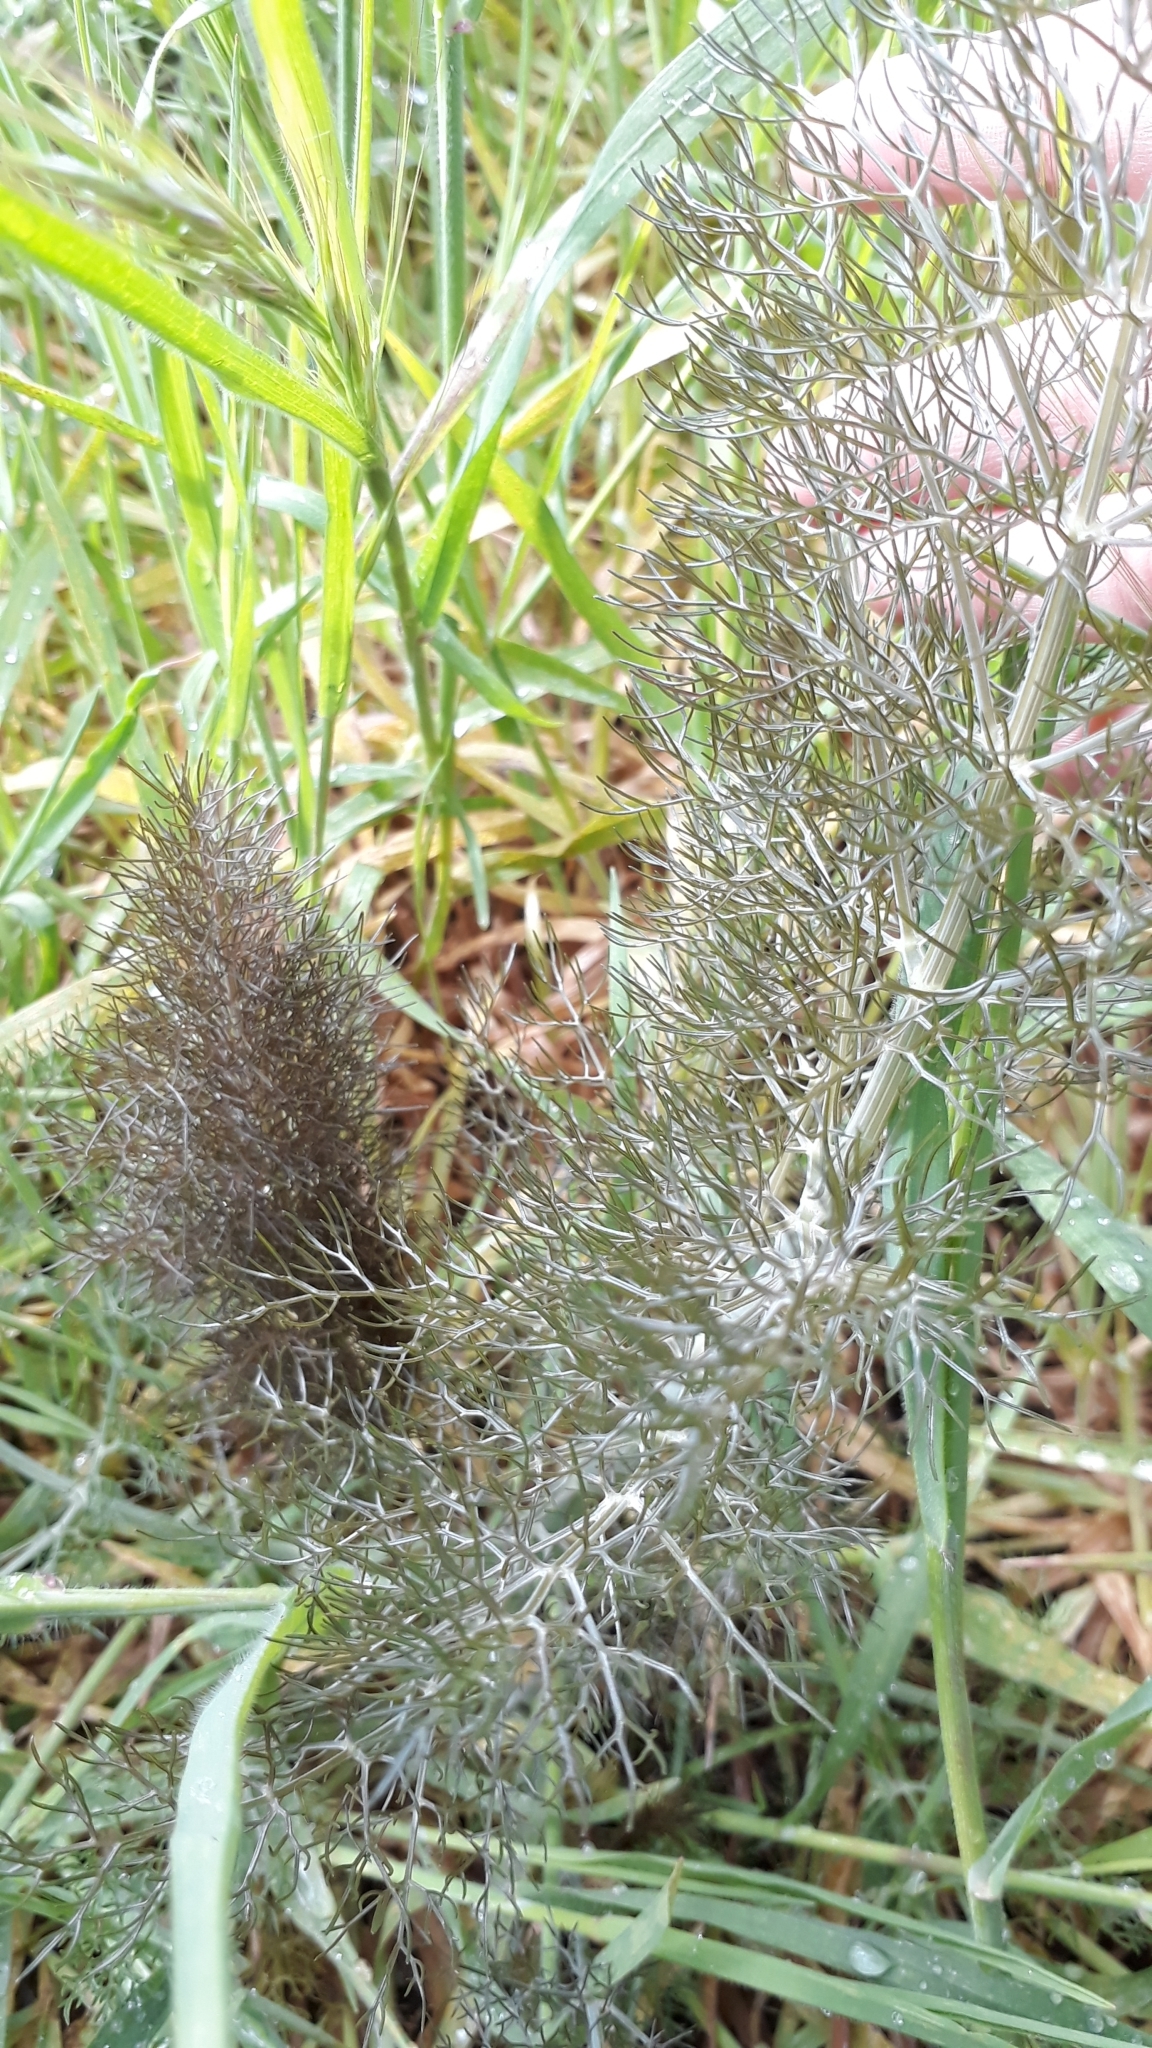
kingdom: Plantae
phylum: Tracheophyta
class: Magnoliopsida
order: Apiales
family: Apiaceae
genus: Foeniculum
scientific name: Foeniculum vulgare
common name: Fennel
